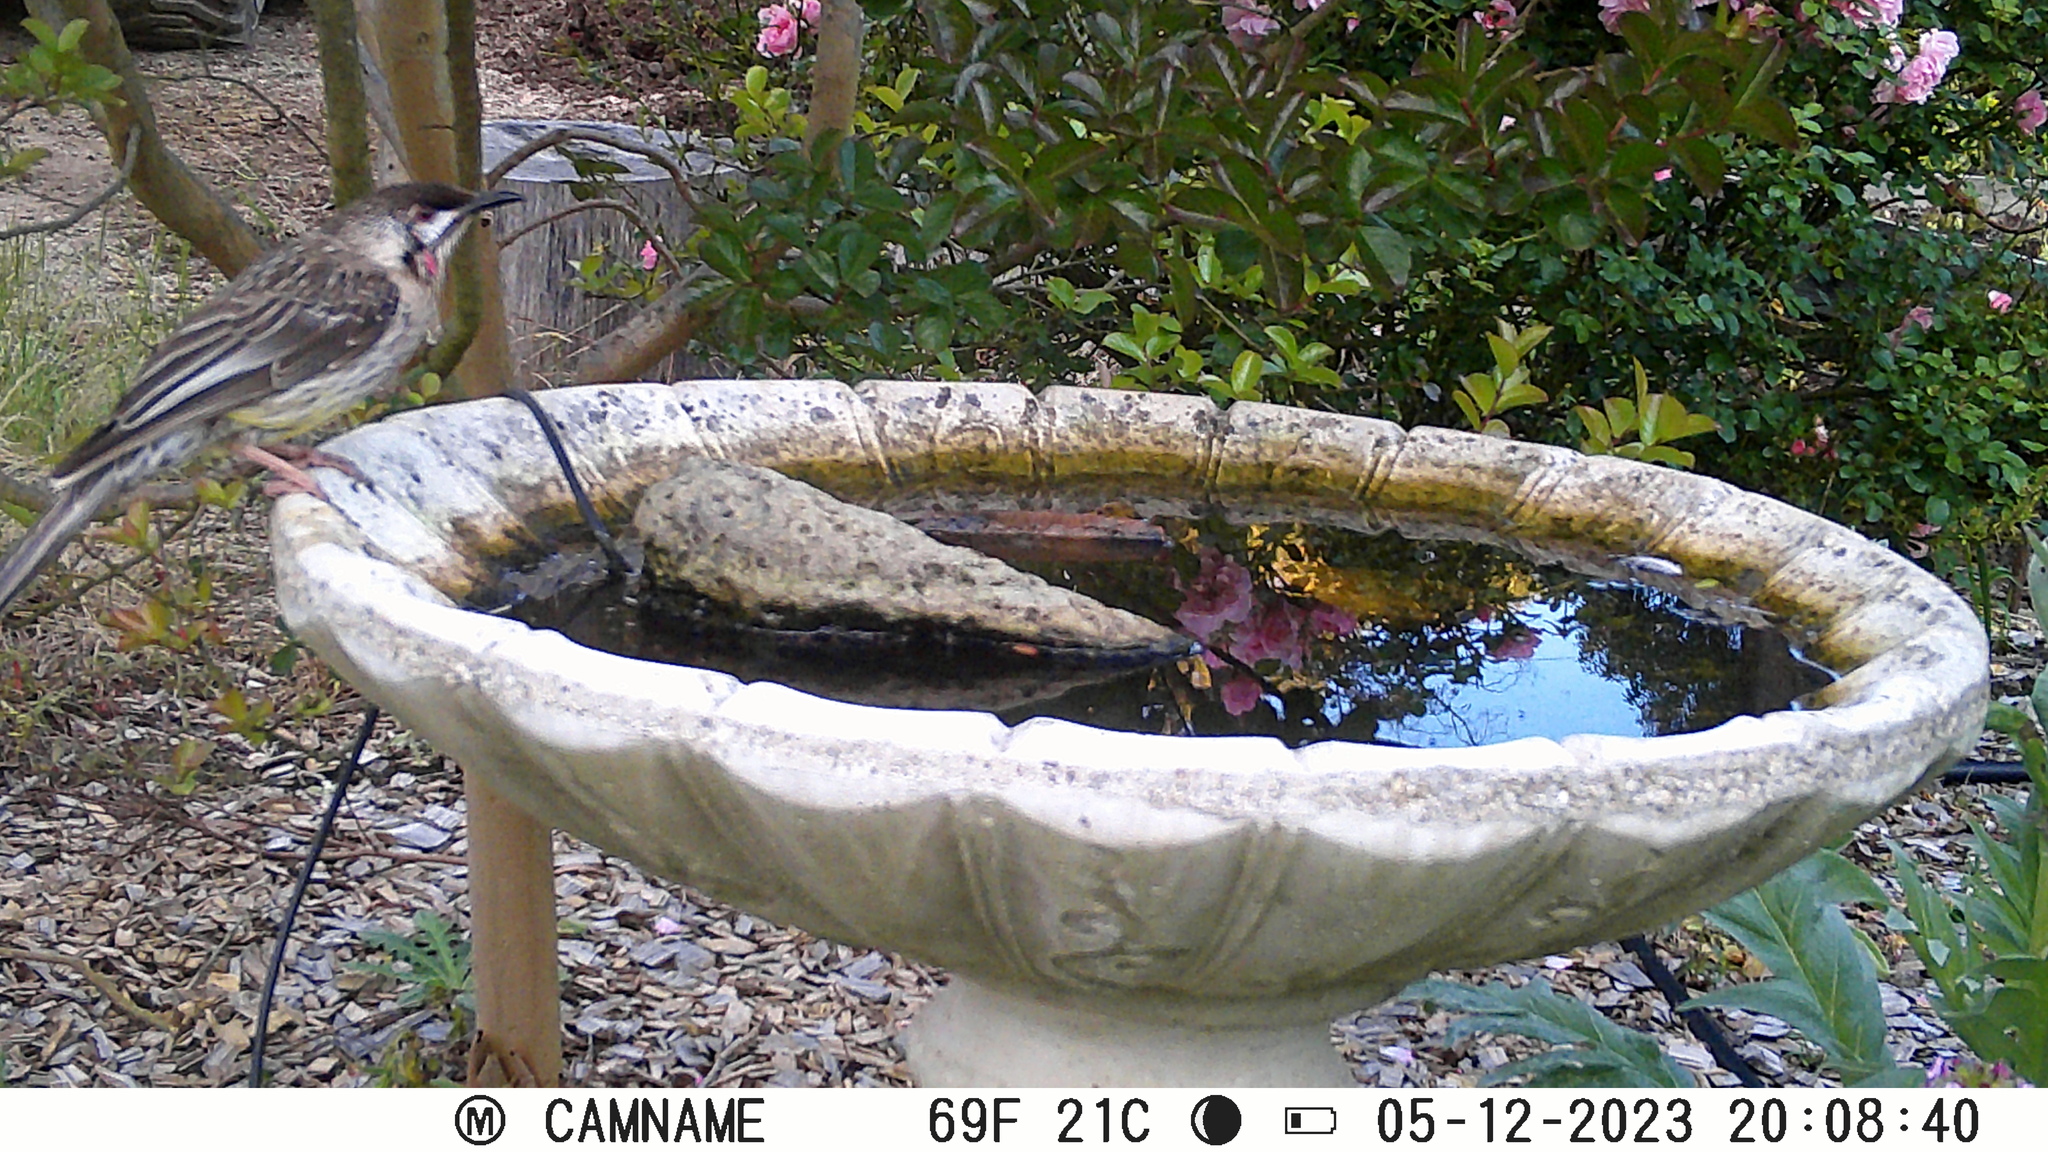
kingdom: Animalia
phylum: Chordata
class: Aves
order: Passeriformes
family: Meliphagidae
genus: Anthochaera
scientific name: Anthochaera carunculata
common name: Red wattlebird
